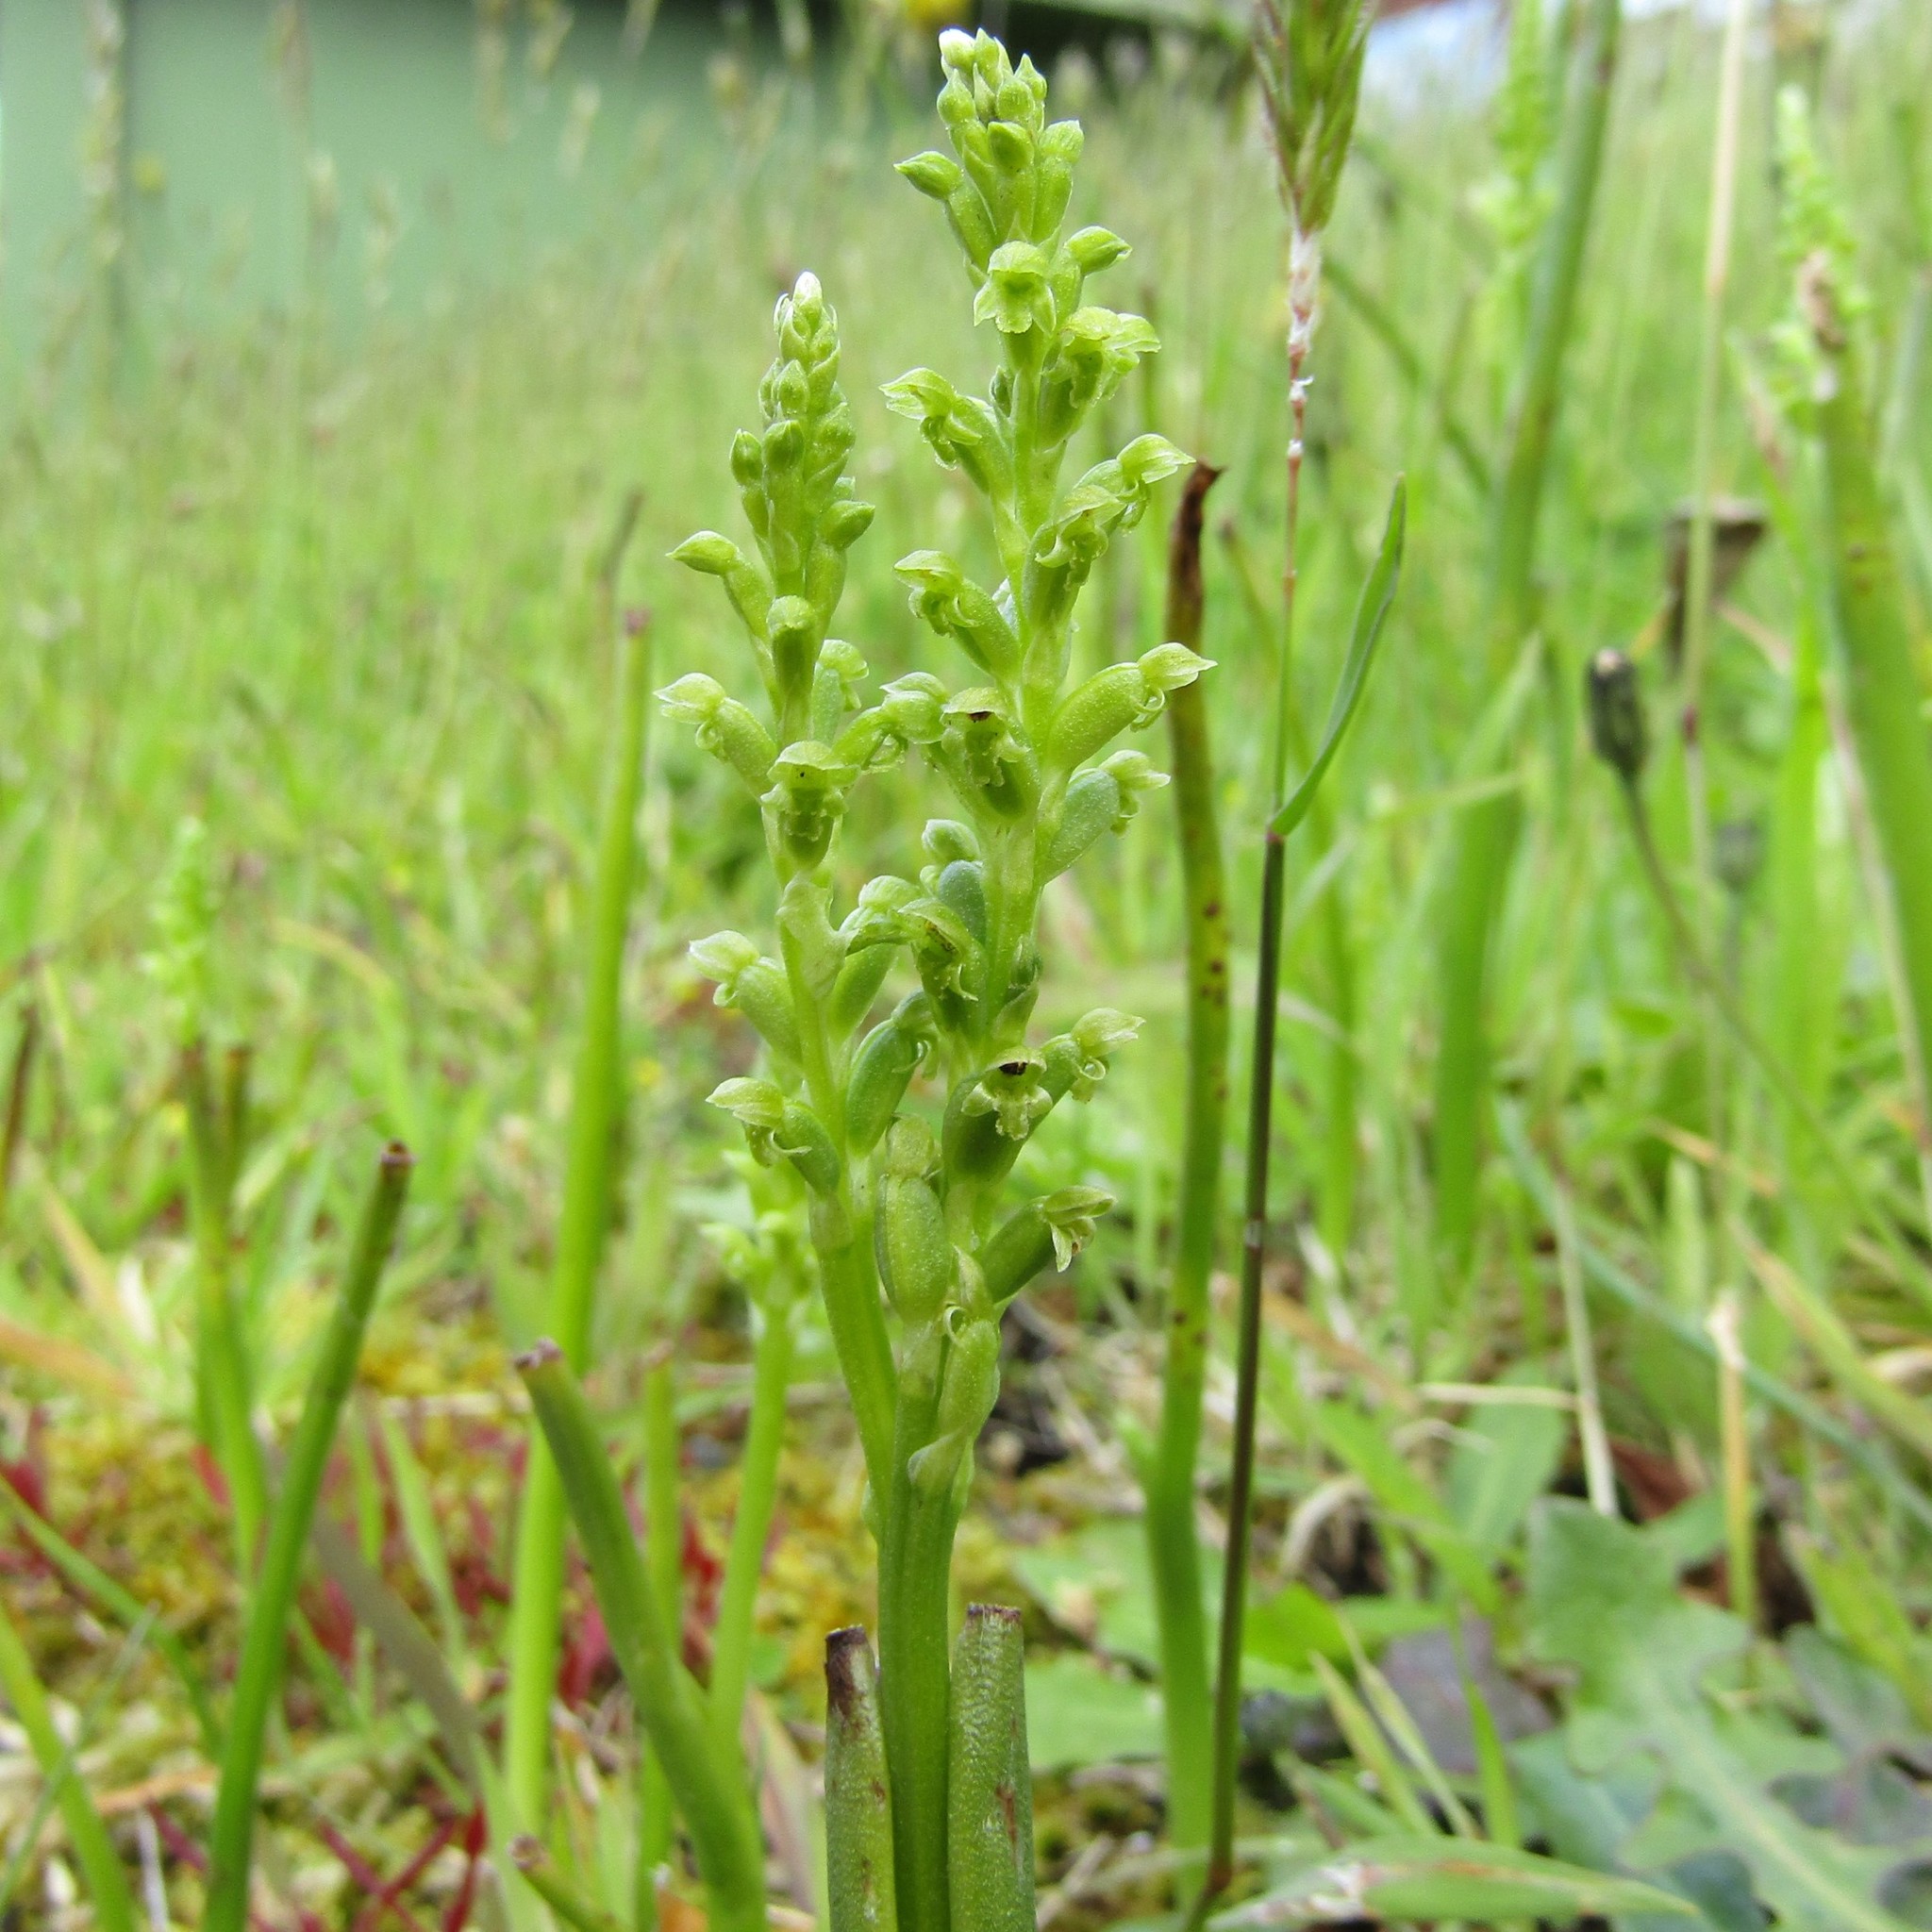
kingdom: Plantae
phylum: Tracheophyta
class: Liliopsida
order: Asparagales
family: Orchidaceae
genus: Microtis
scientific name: Microtis unifolia
